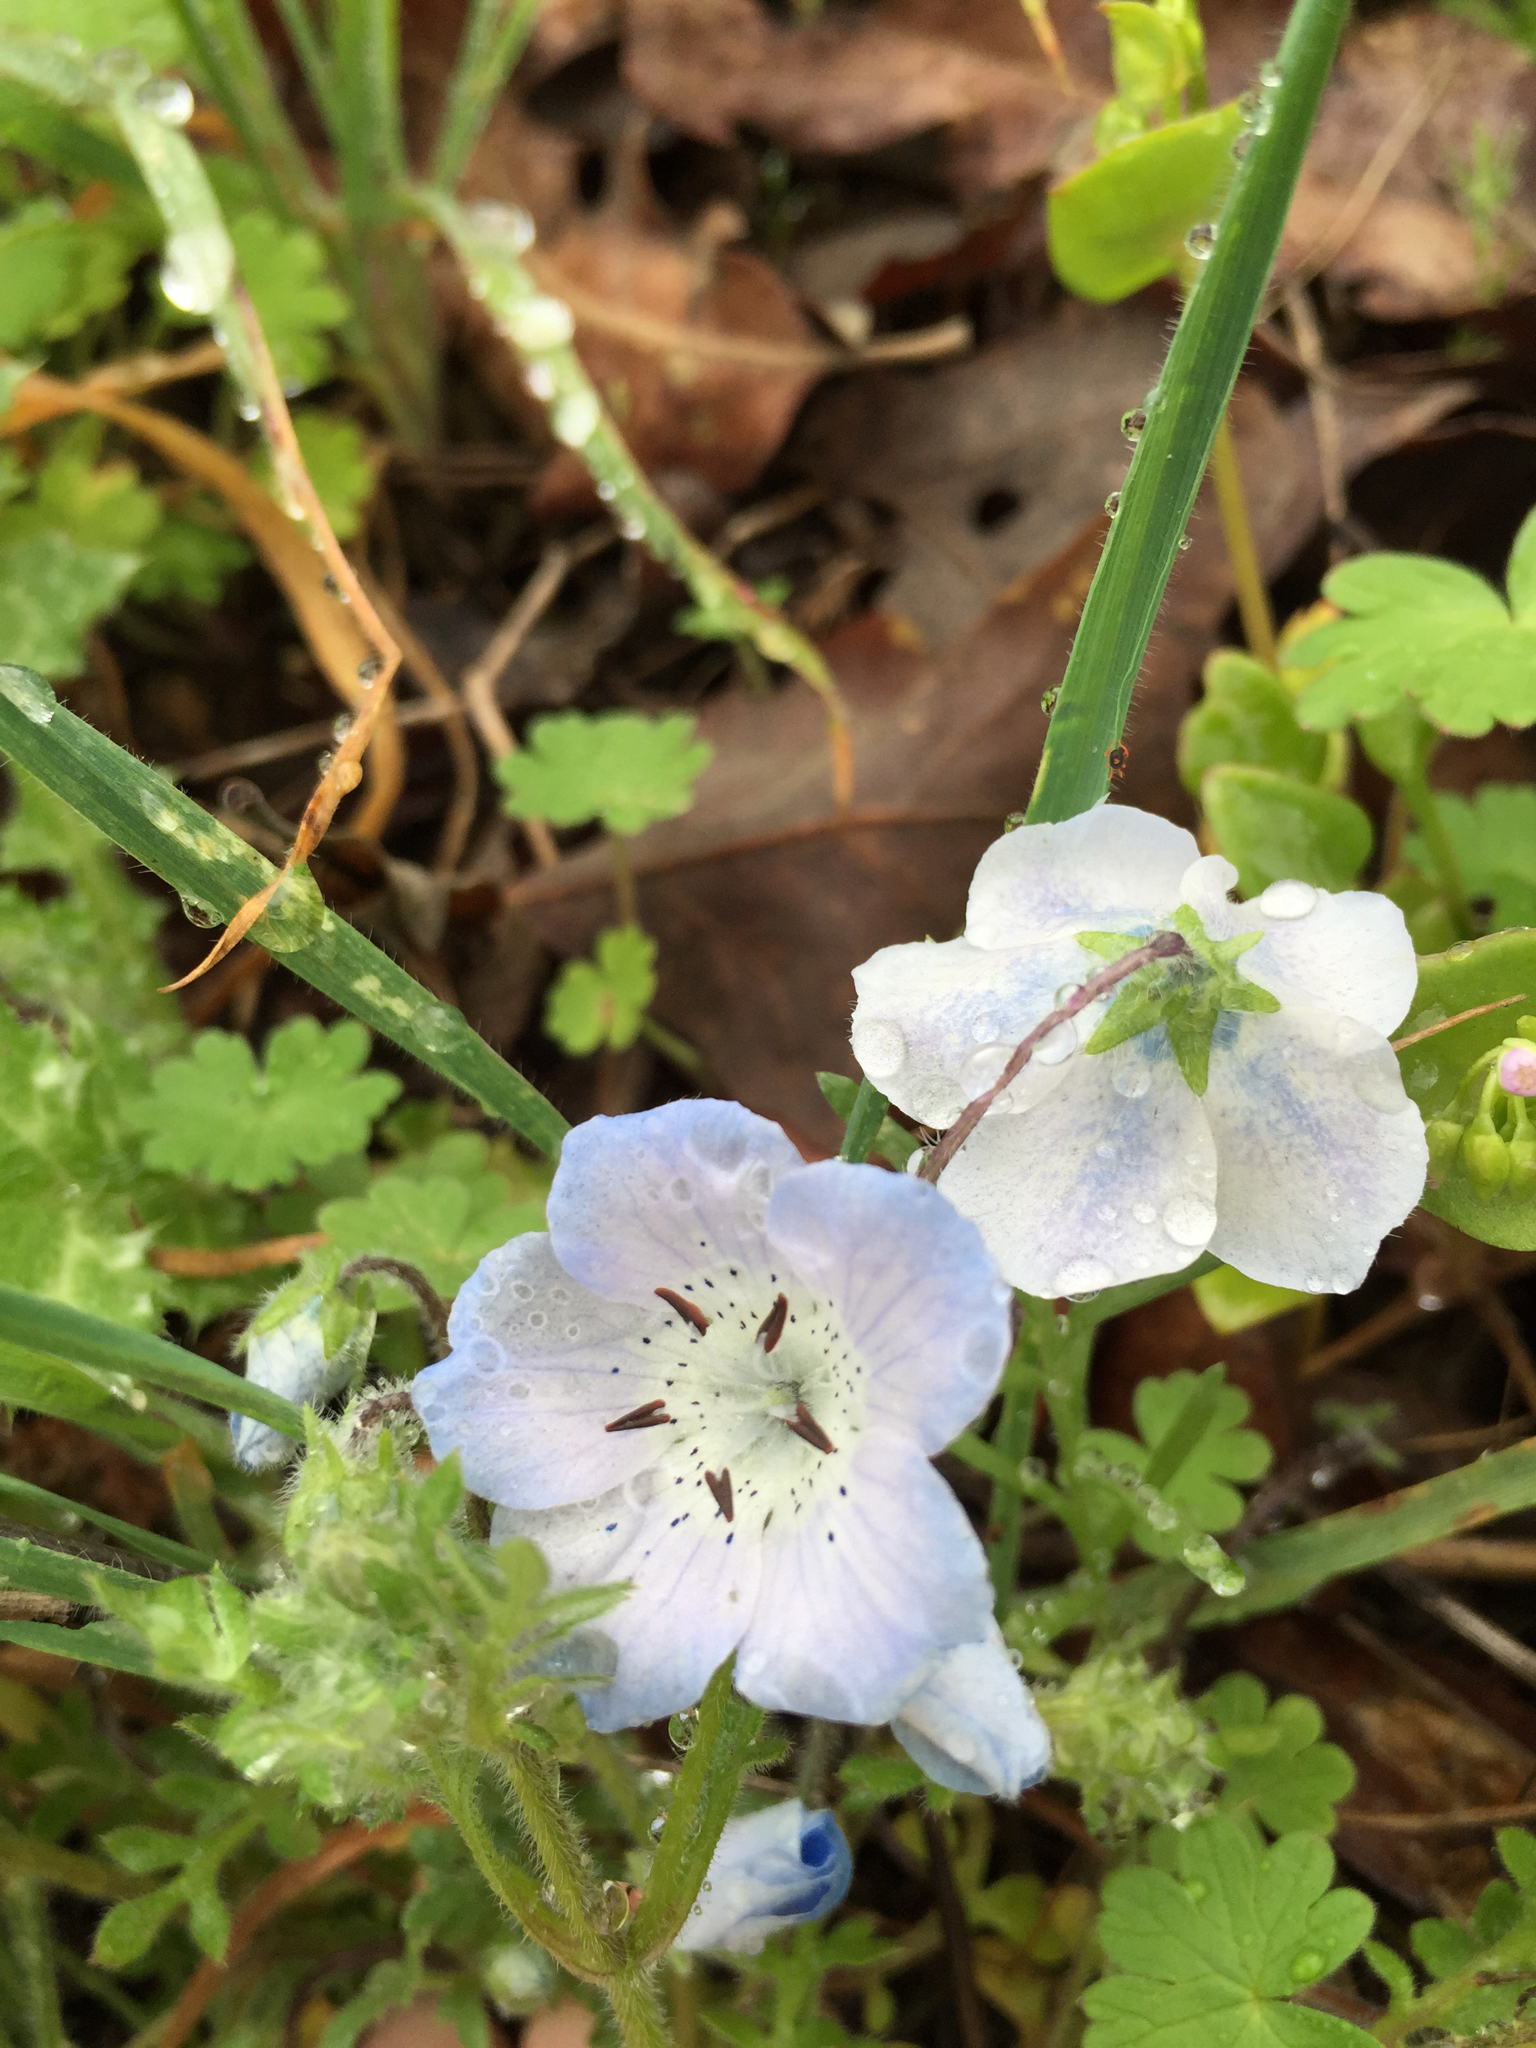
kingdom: Plantae
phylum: Tracheophyta
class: Magnoliopsida
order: Boraginales
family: Hydrophyllaceae
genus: Nemophila
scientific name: Nemophila menziesii
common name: Baby's-blue-eyes
